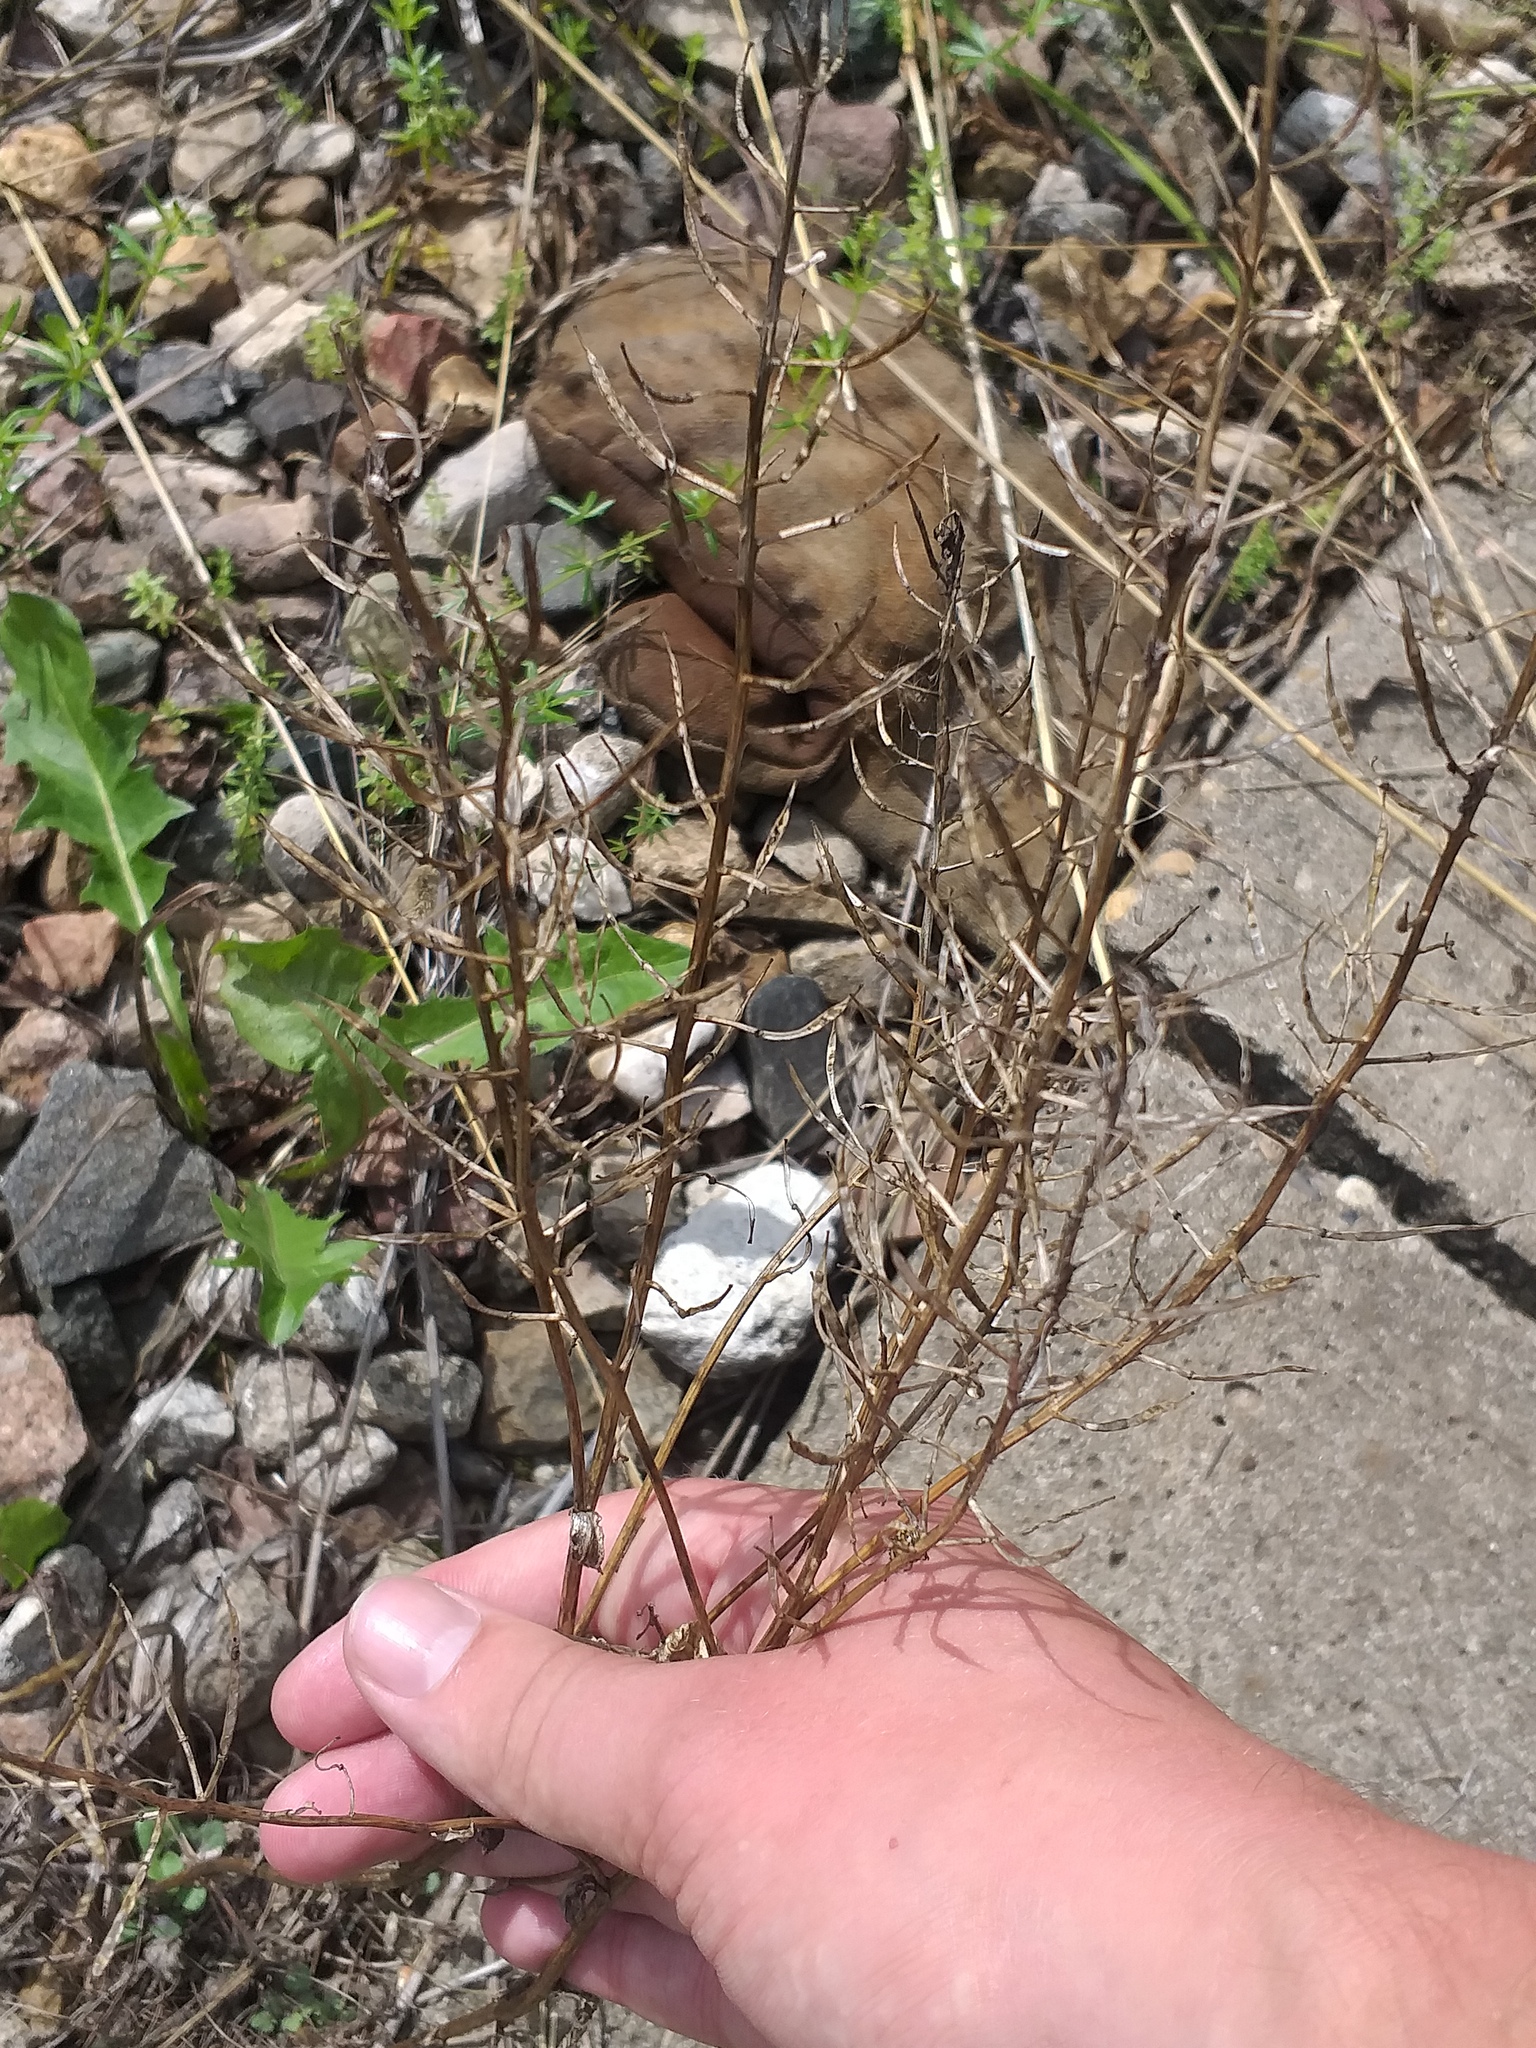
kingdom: Plantae
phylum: Tracheophyta
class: Magnoliopsida
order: Brassicales
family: Brassicaceae
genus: Barbarea
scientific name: Barbarea vulgaris
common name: Cressy-greens
